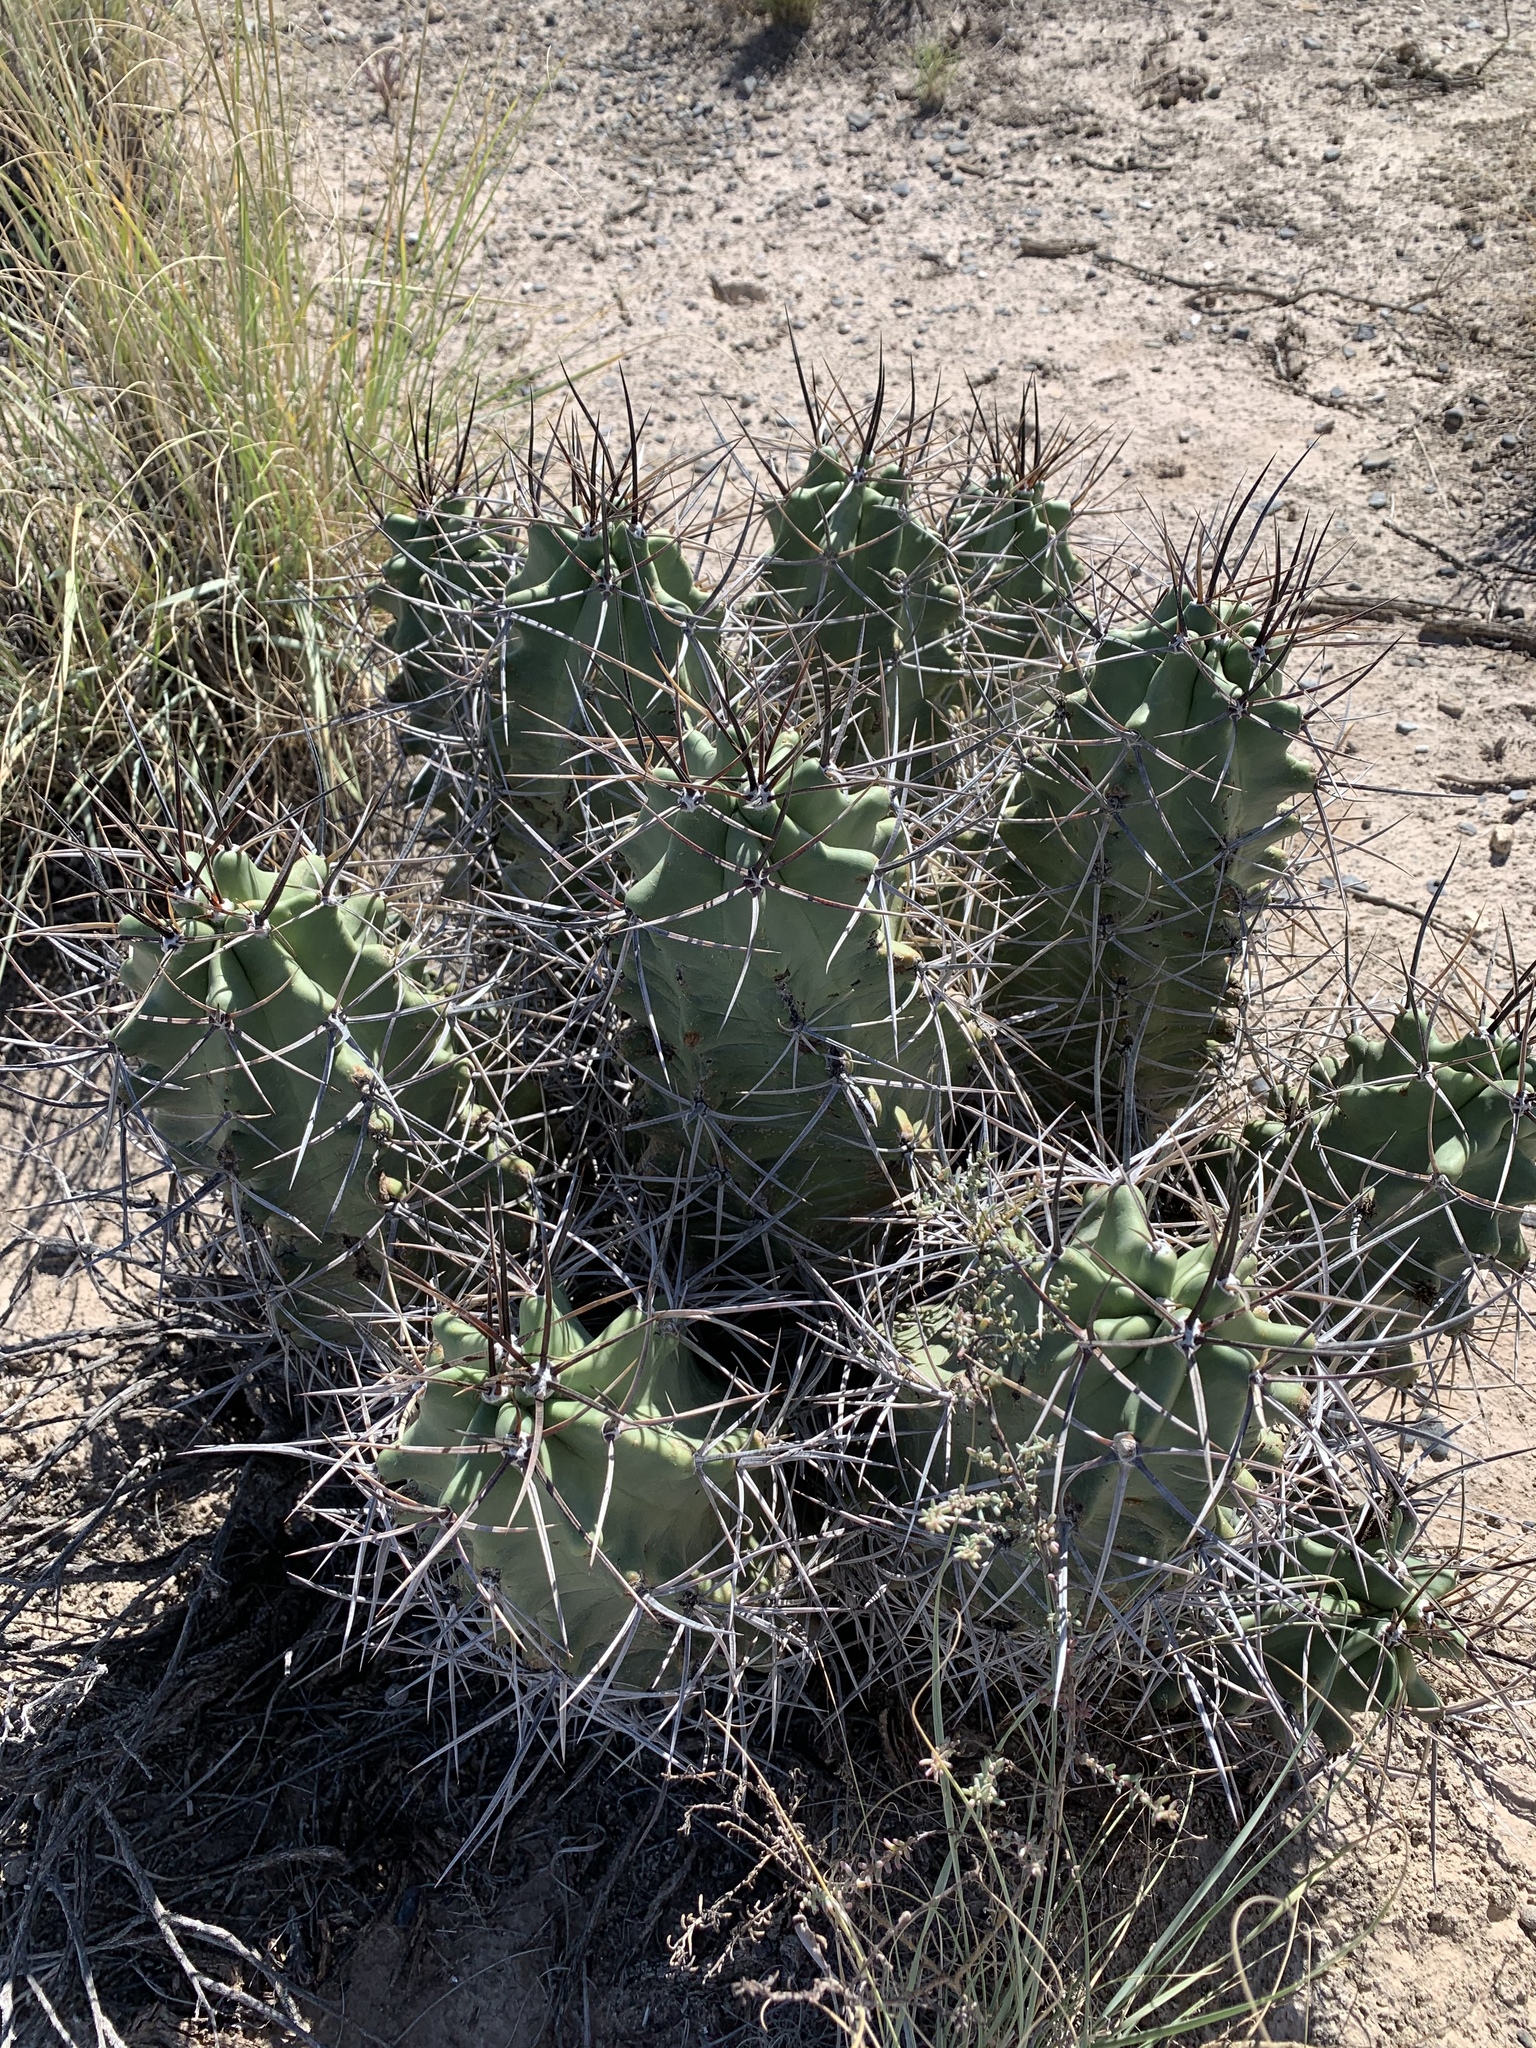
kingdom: Plantae
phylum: Tracheophyta
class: Magnoliopsida
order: Caryophyllales
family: Cactaceae
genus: Echinocereus
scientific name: Echinocereus triglochidiatus
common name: Claretcup hedgehog
